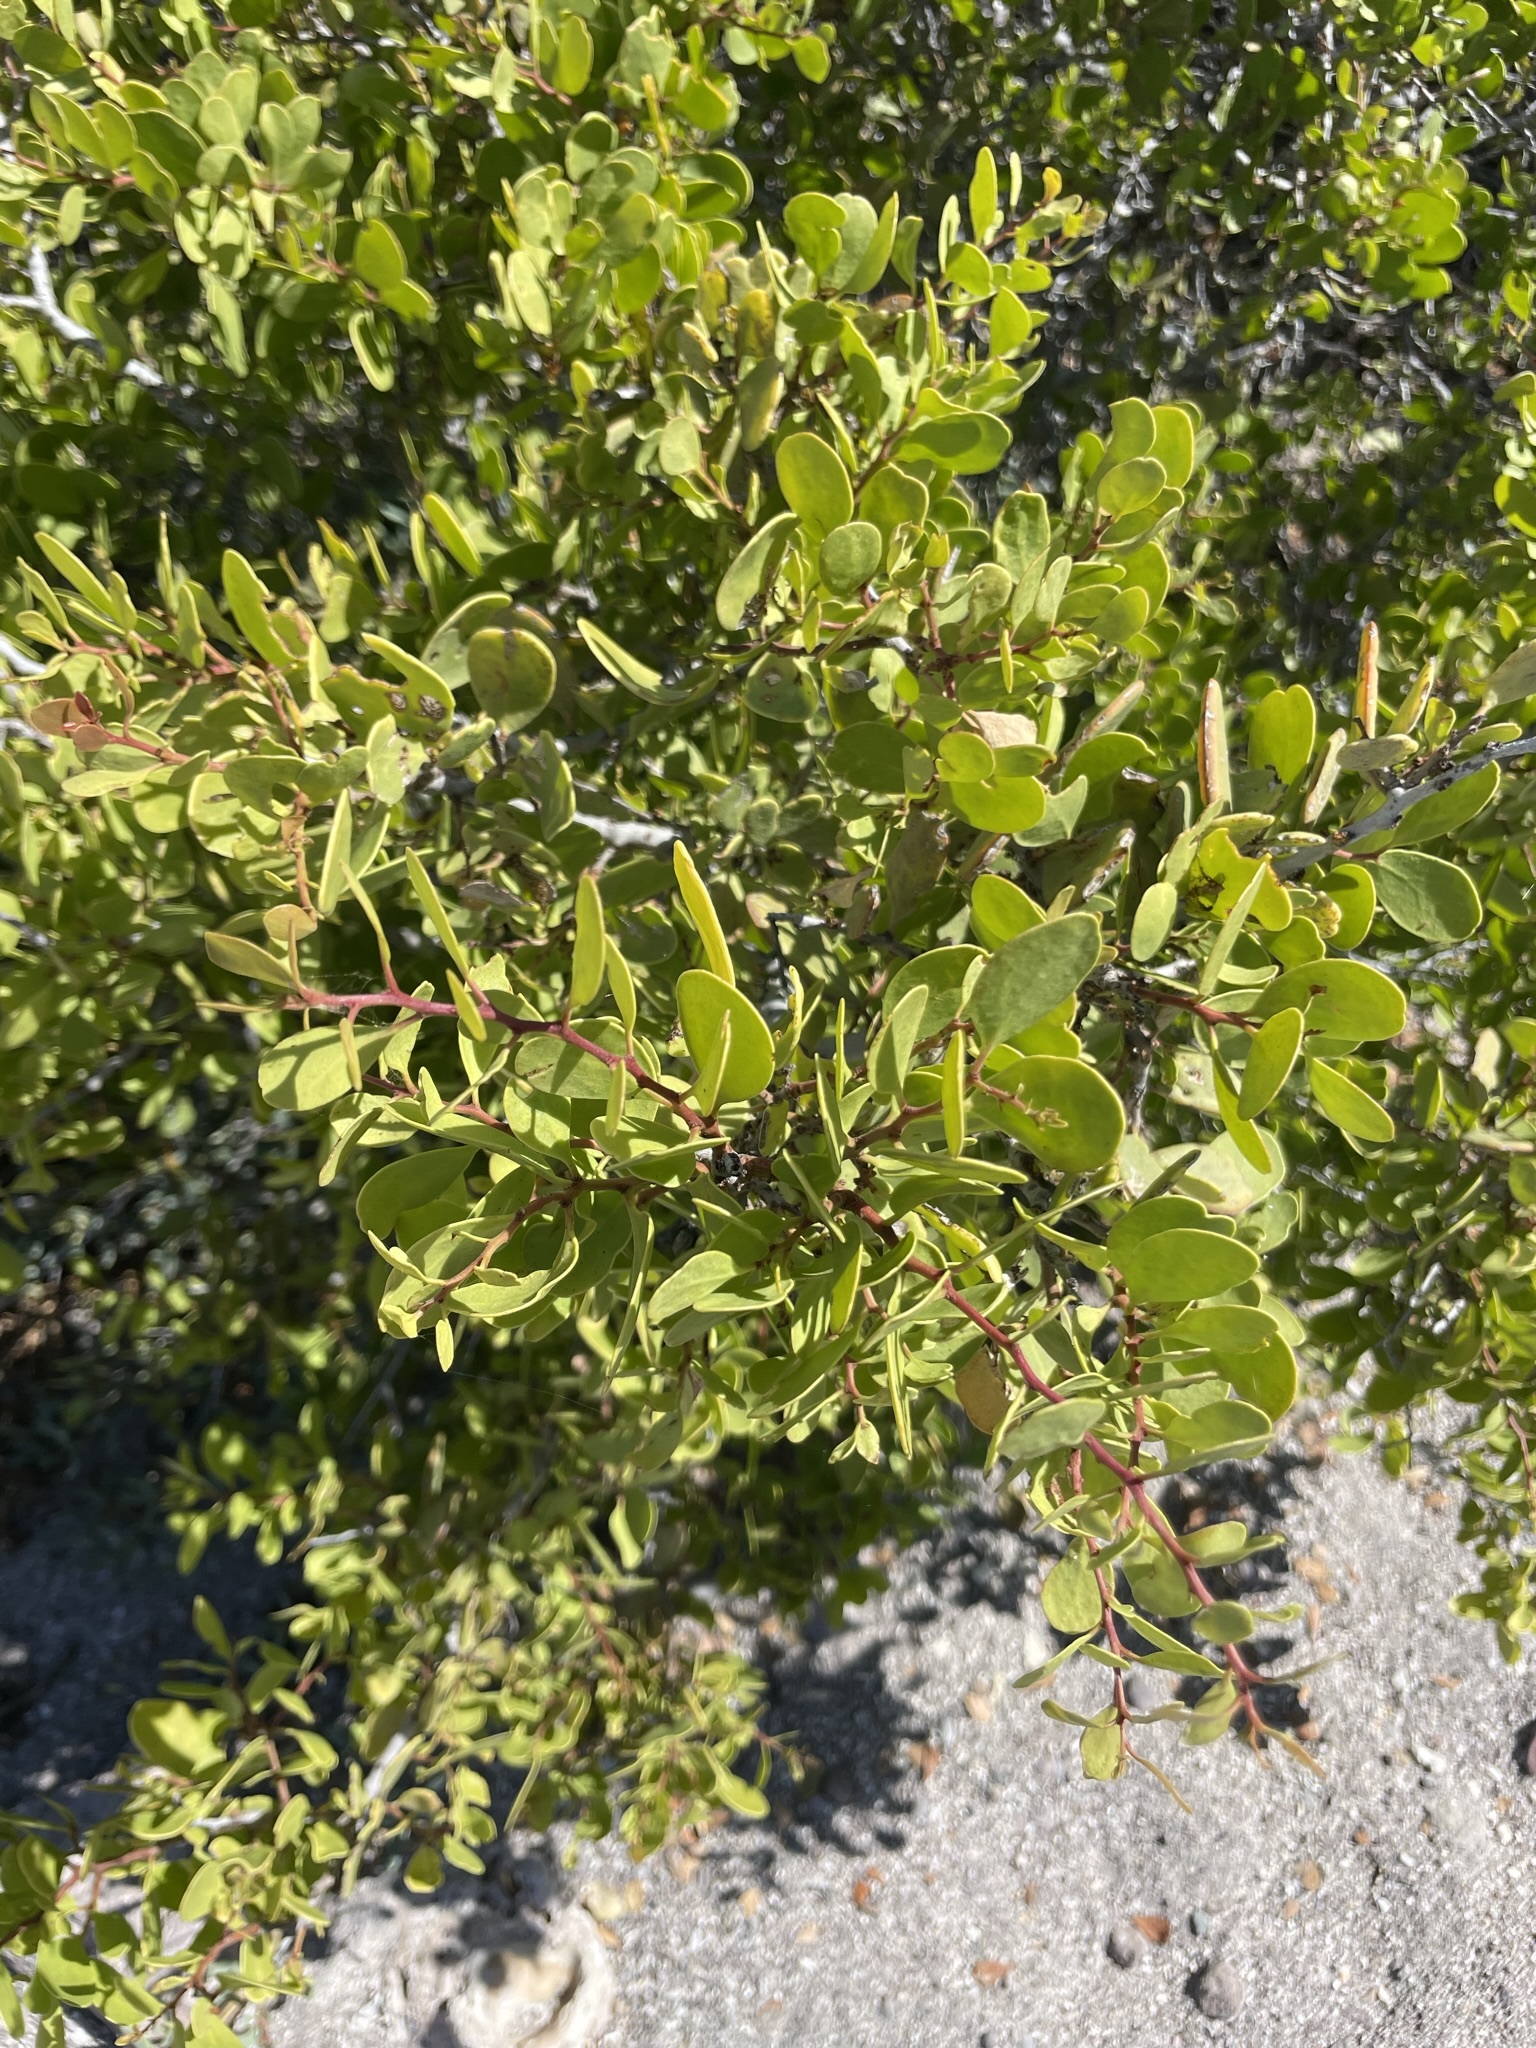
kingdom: Plantae
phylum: Tracheophyta
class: Magnoliopsida
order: Celastrales
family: Celastraceae
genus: Tricerma
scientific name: Tricerma phyllanthoides
